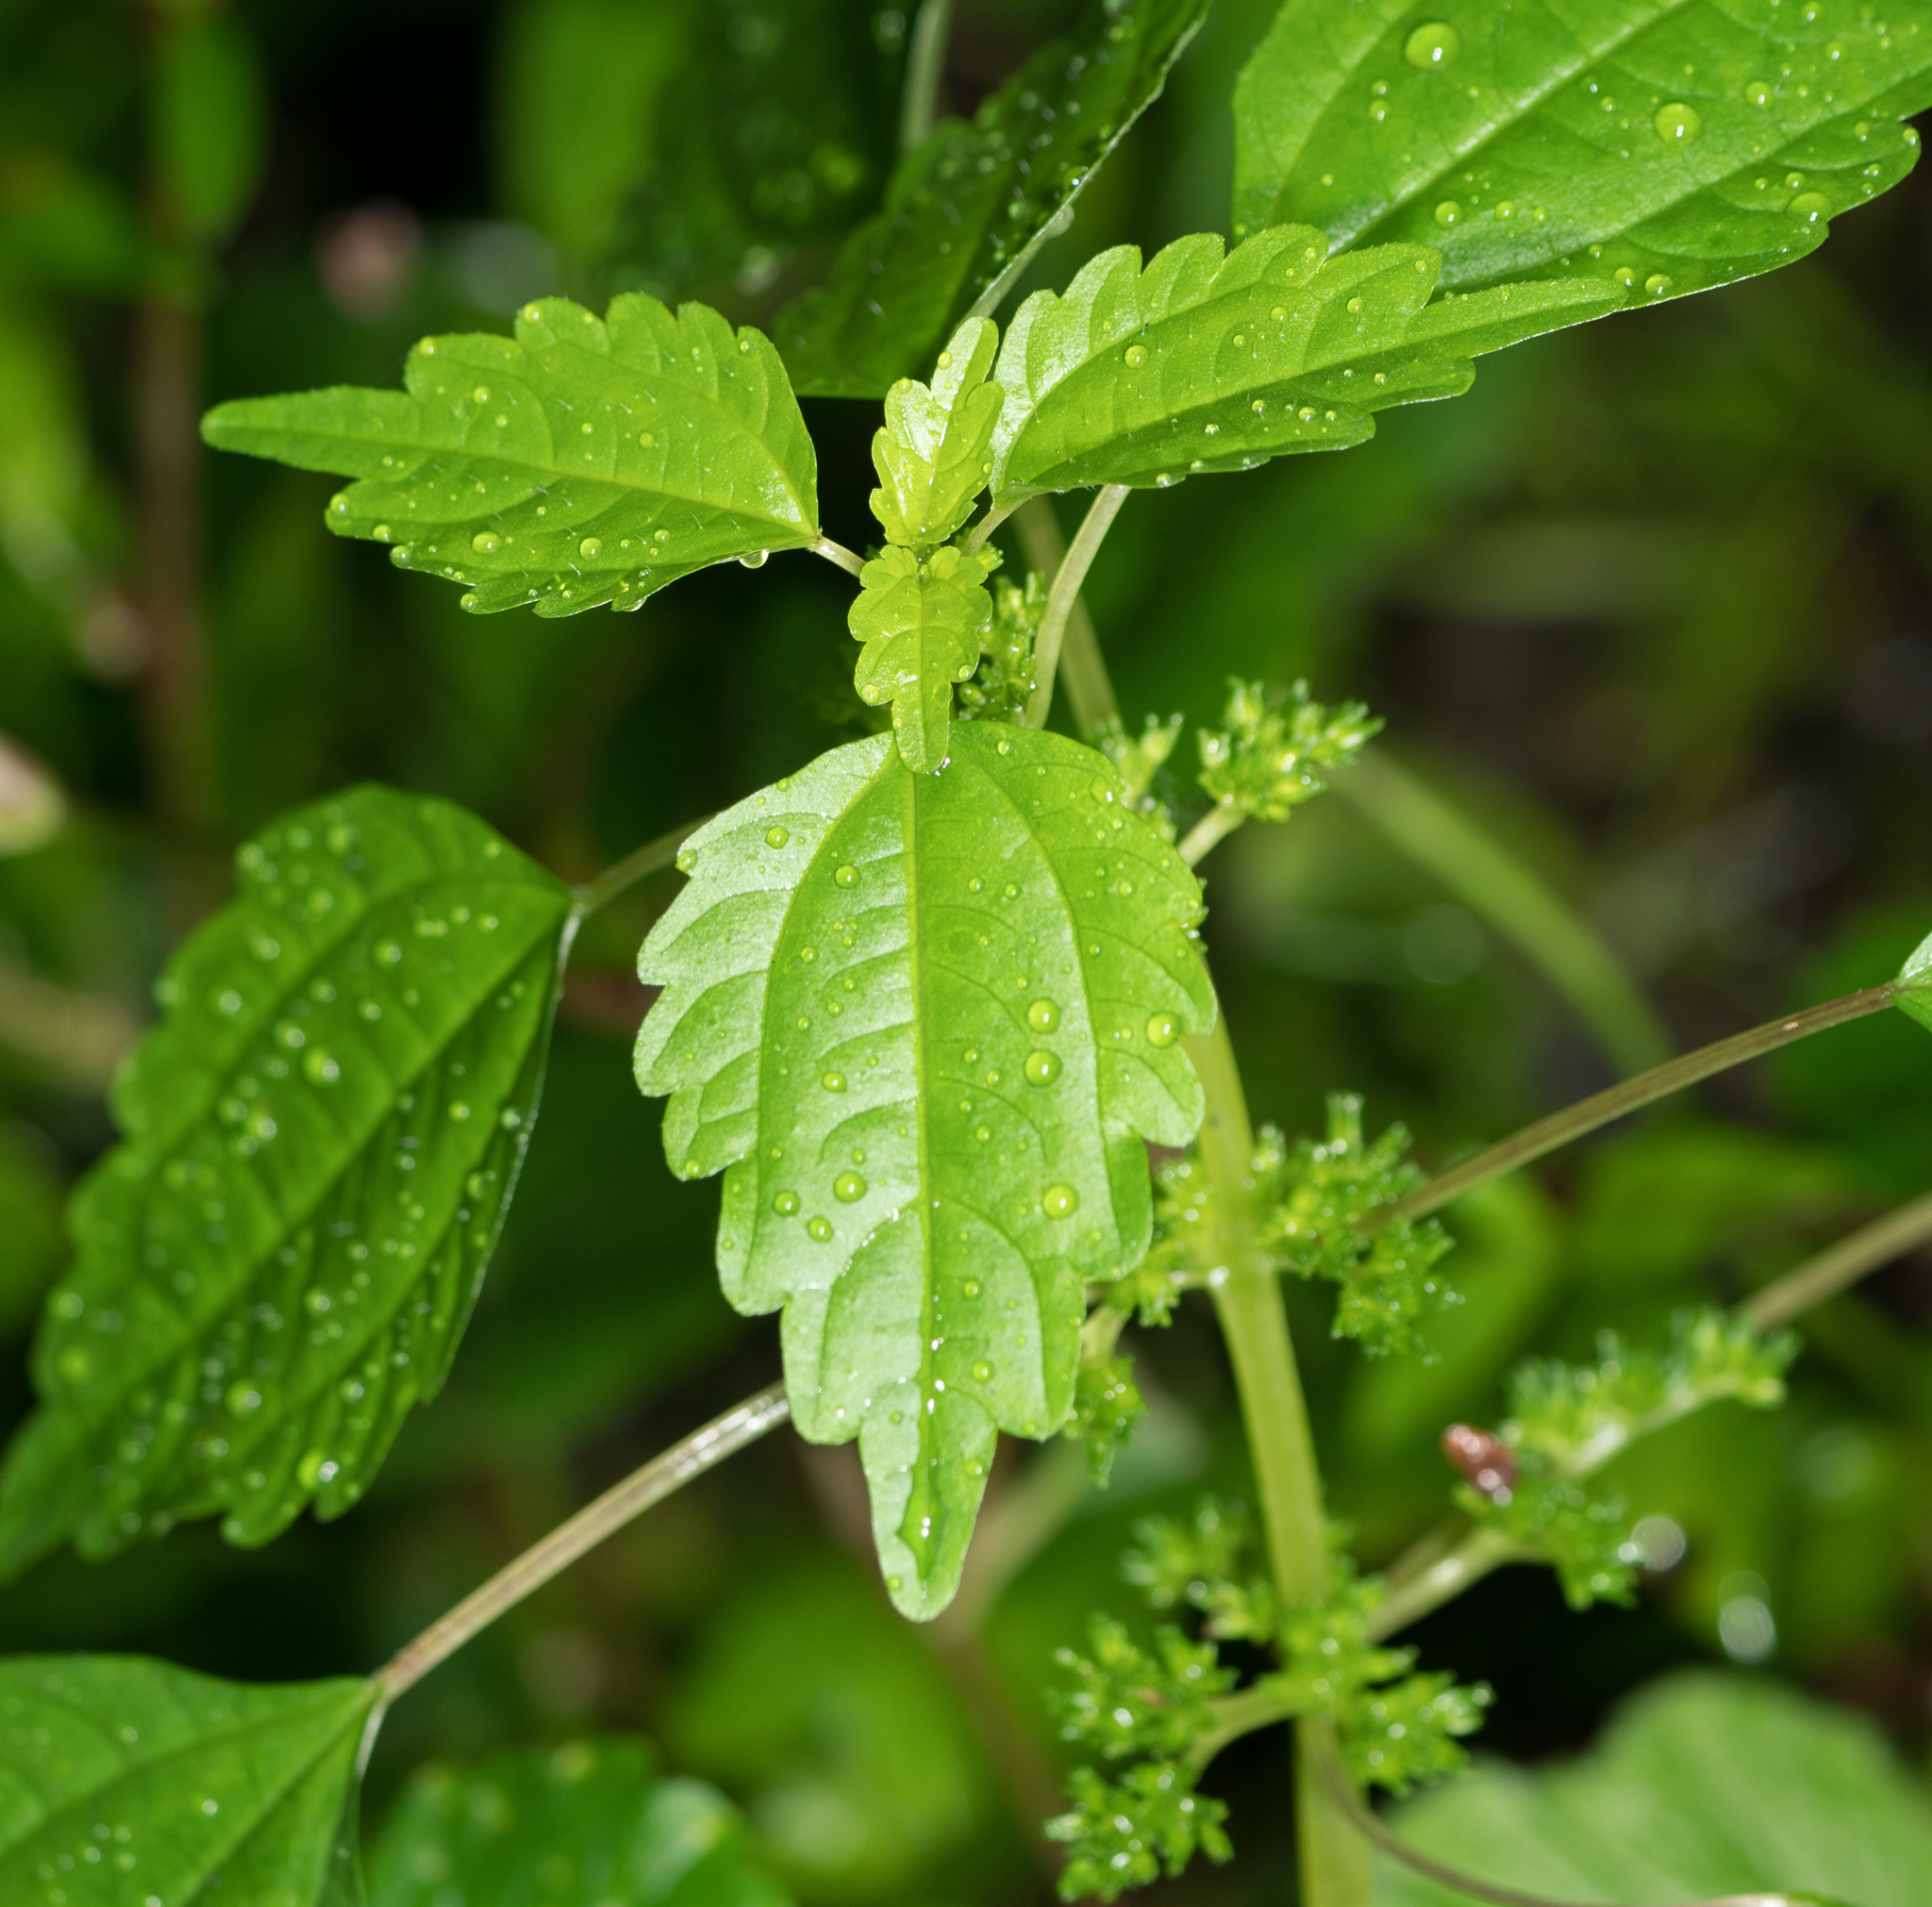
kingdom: Plantae
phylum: Tracheophyta
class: Magnoliopsida
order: Rosales
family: Urticaceae
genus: Pilea
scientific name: Pilea pumila
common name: Clearweed
